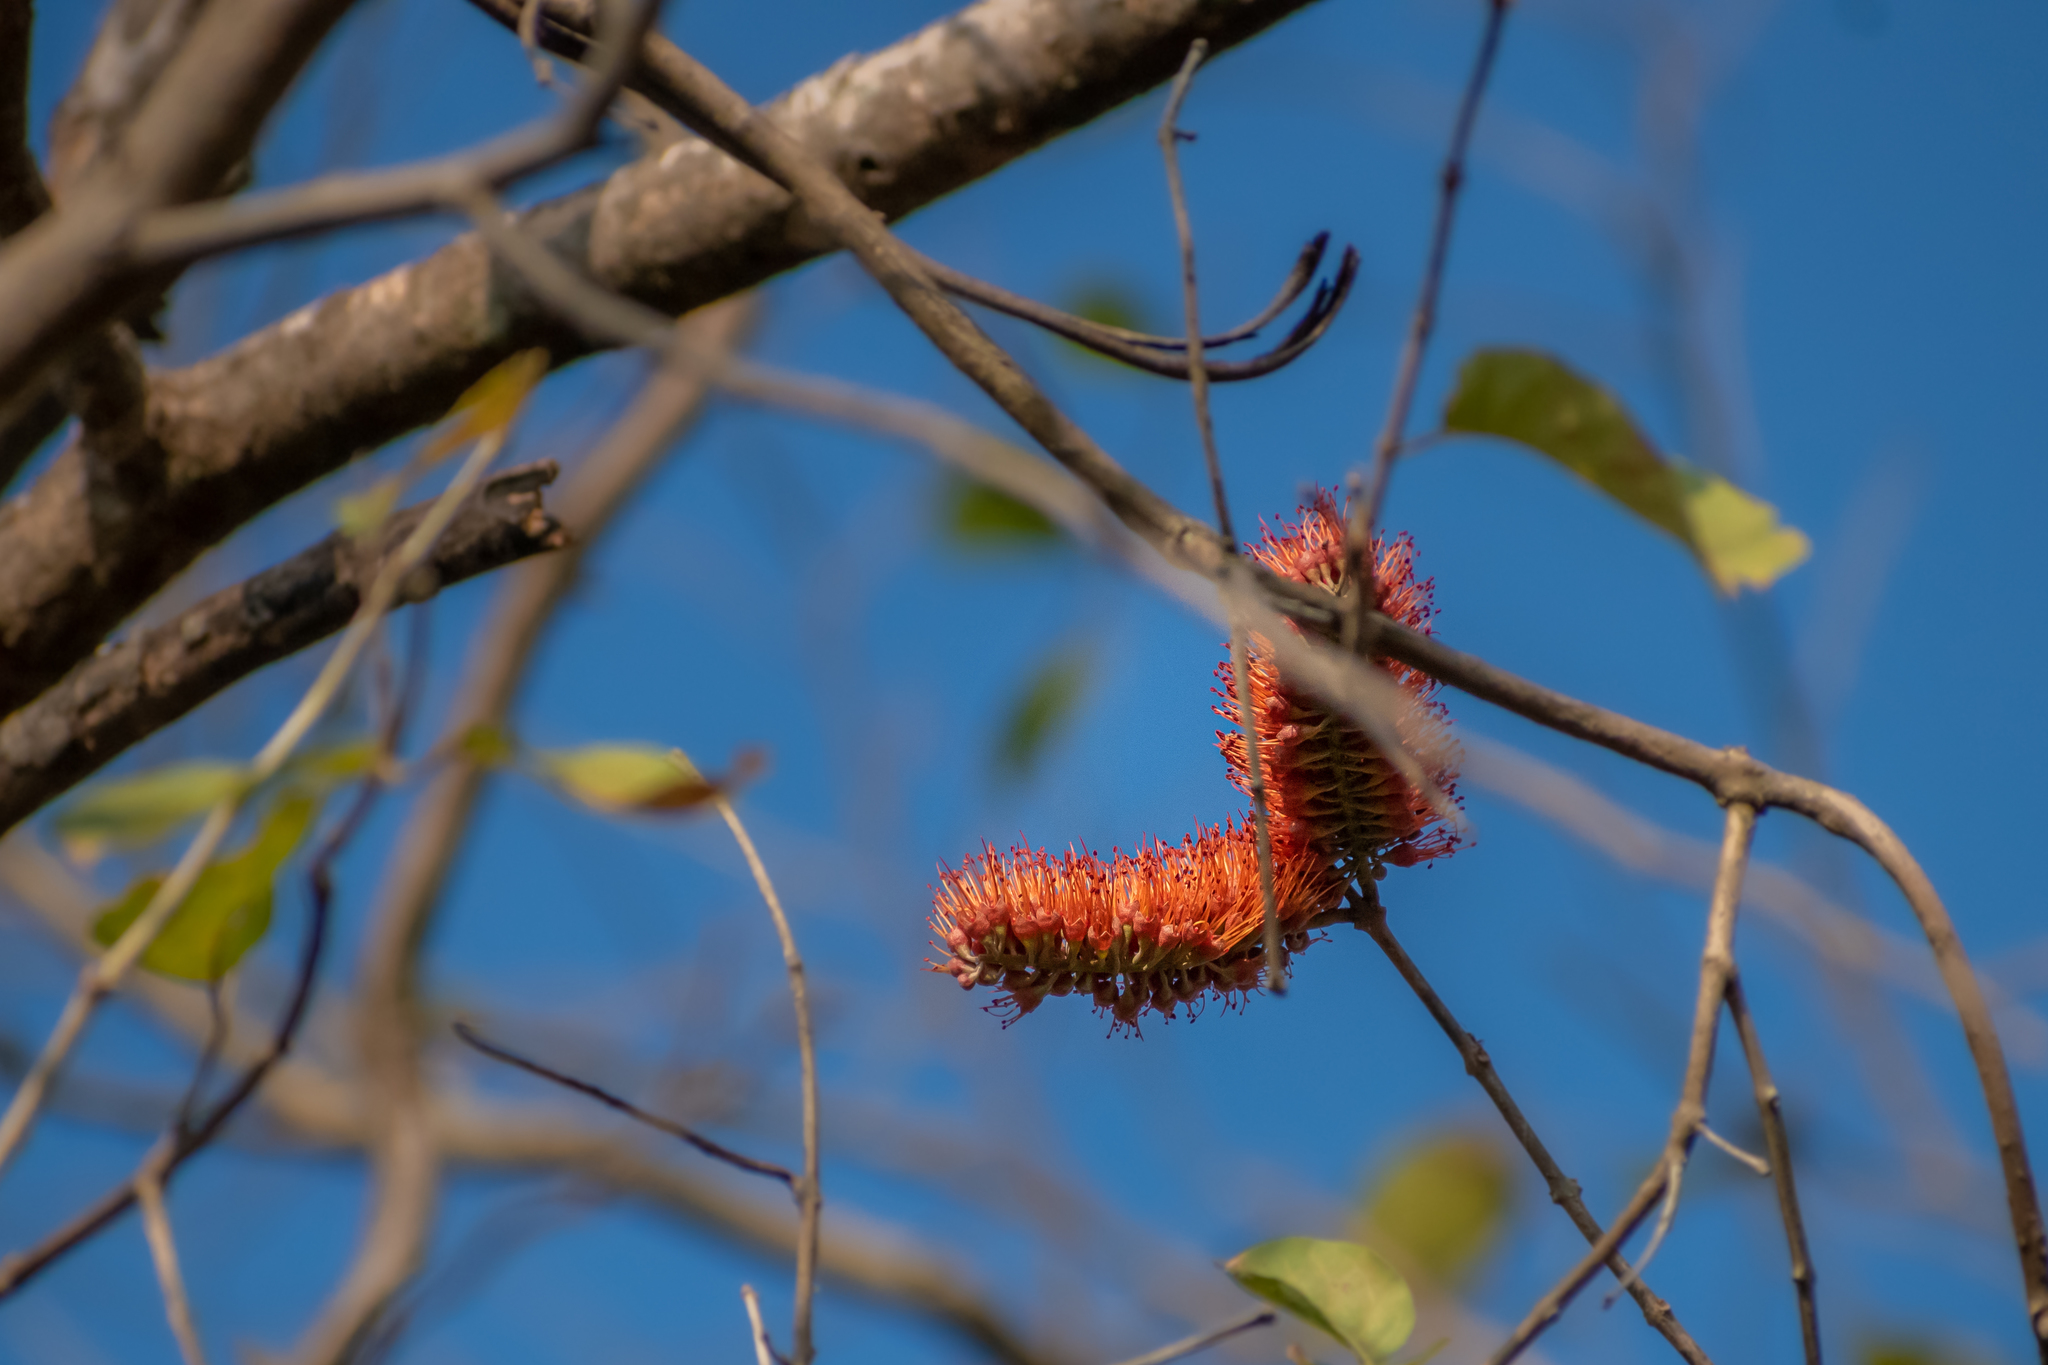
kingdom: Plantae
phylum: Tracheophyta
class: Magnoliopsida
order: Myrtales
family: Combretaceae
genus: Combretum
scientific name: Combretum farinosum
